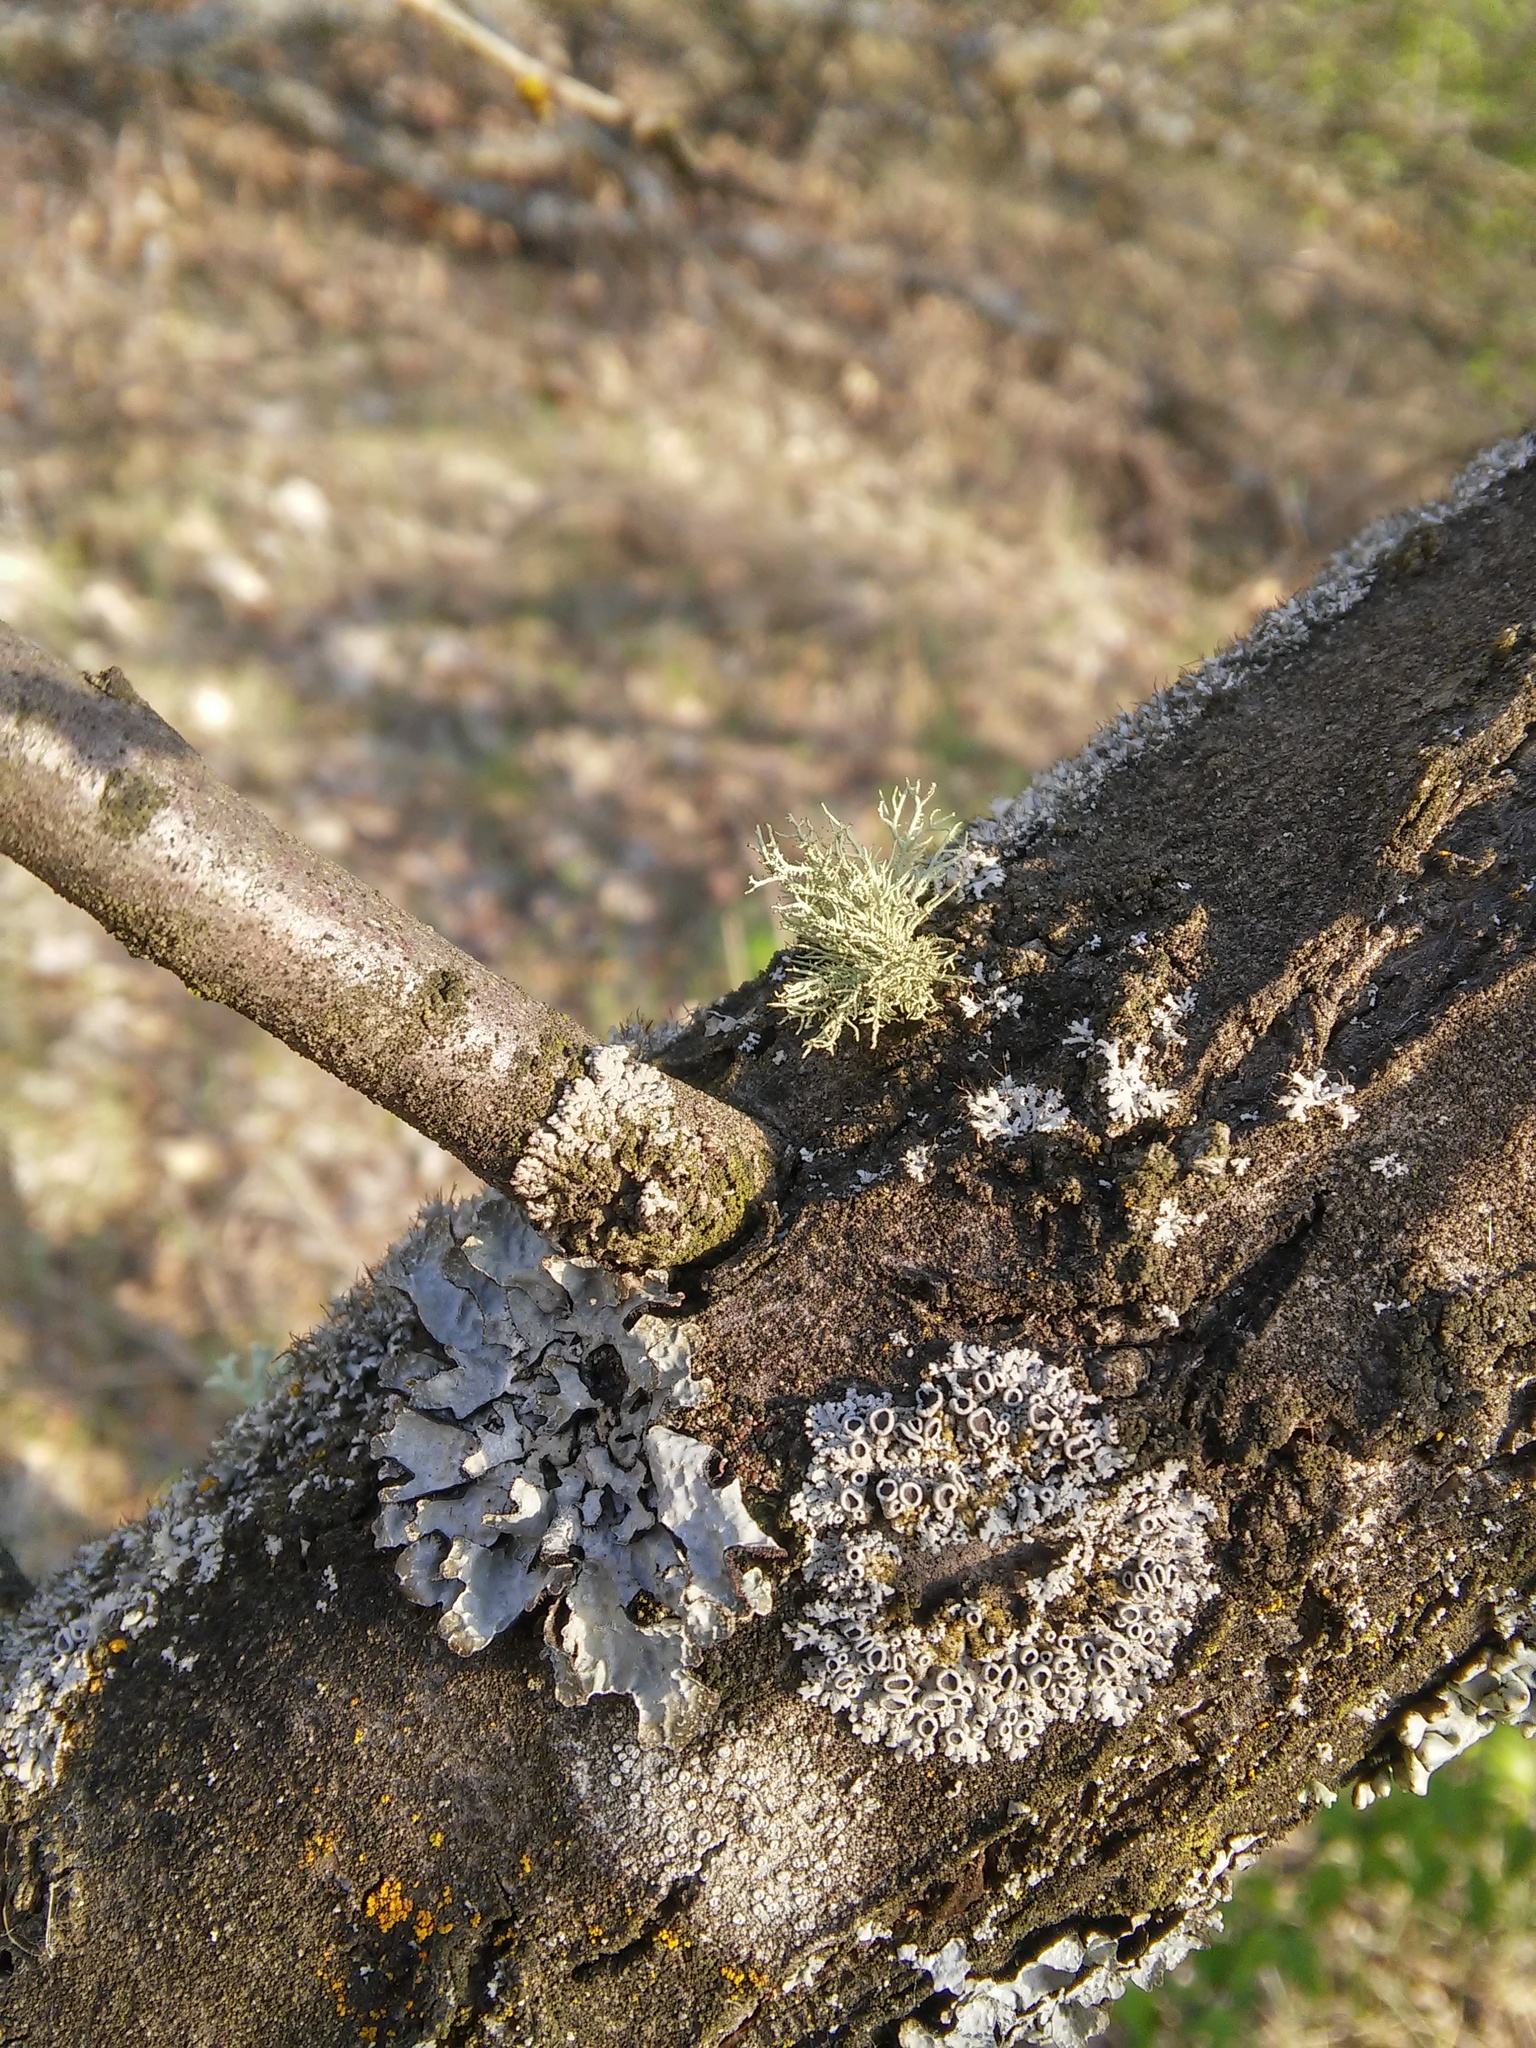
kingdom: Fungi
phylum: Ascomycota
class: Lecanoromycetes
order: Lecanorales
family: Parmeliaceae
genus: Usnea
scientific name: Usnea hirta
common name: Bristly beard lichen
